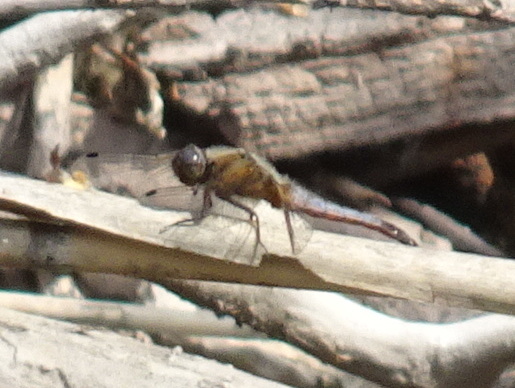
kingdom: Animalia
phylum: Arthropoda
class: Insecta
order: Odonata
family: Libellulidae
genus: Libellula
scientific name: Libellula fulva
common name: Blue chaser
